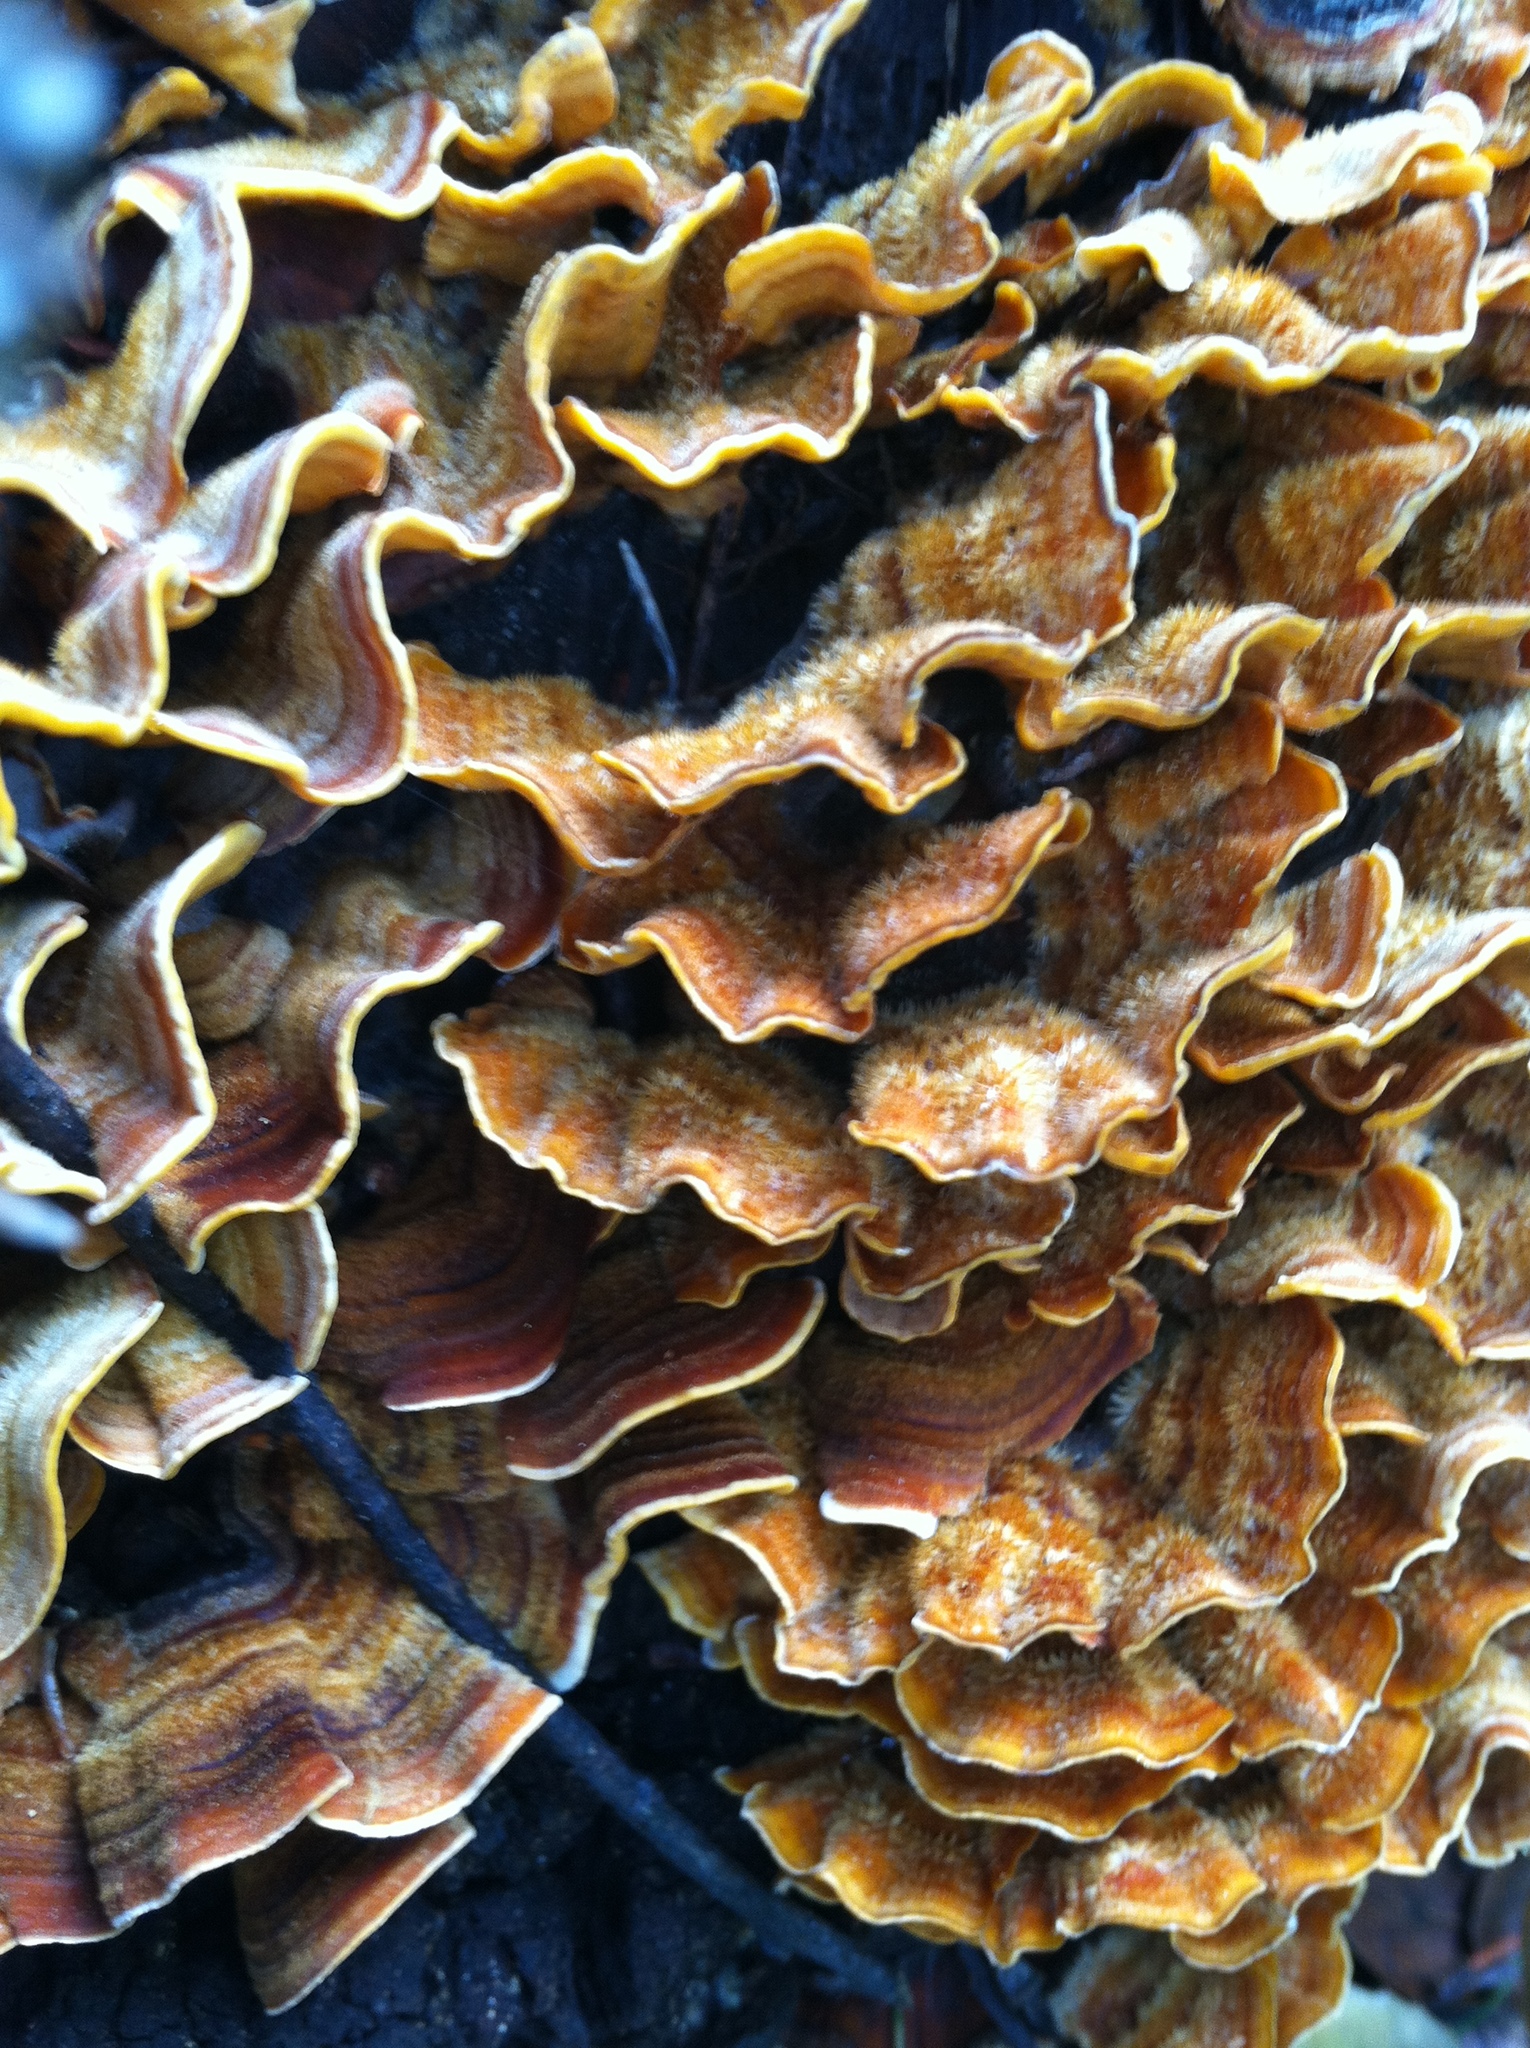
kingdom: Fungi
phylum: Basidiomycota
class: Agaricomycetes
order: Russulales
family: Stereaceae
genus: Stereum
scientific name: Stereum hirsutum
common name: Hairy curtain crust
